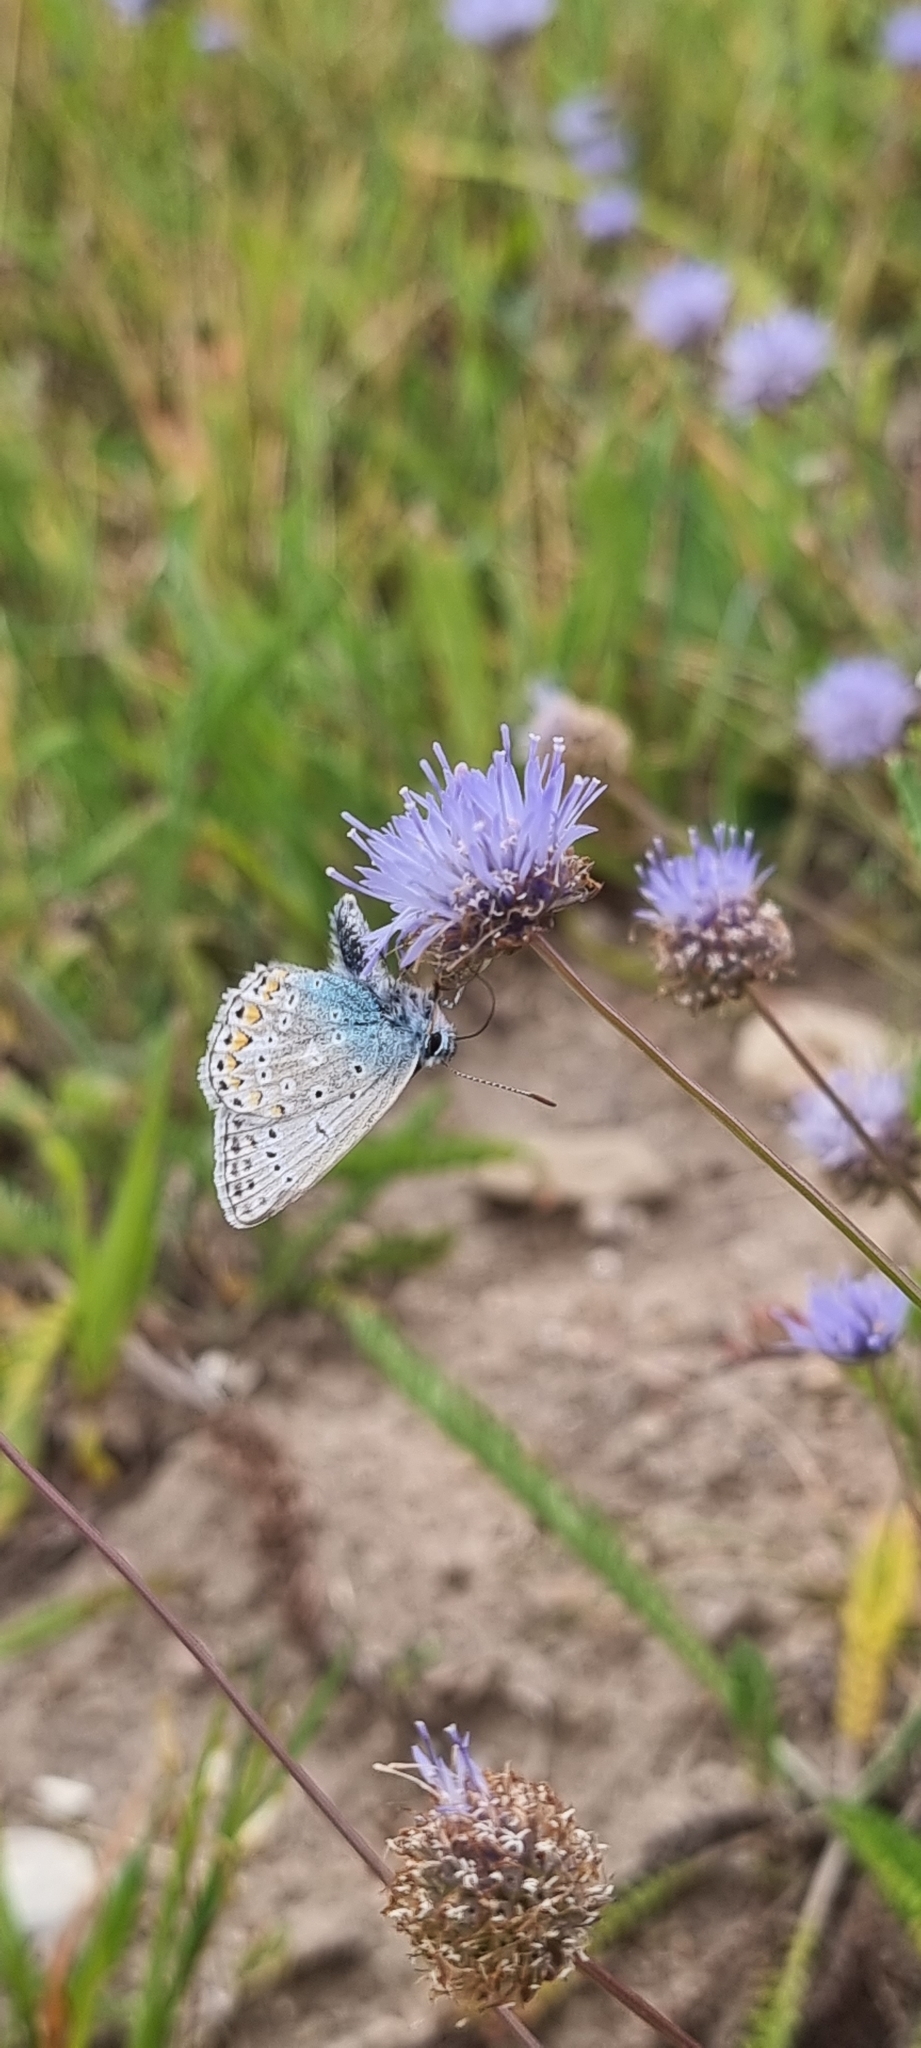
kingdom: Animalia
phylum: Arthropoda
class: Insecta
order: Lepidoptera
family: Lycaenidae
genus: Polyommatus
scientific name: Polyommatus icarus
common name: Common blue
